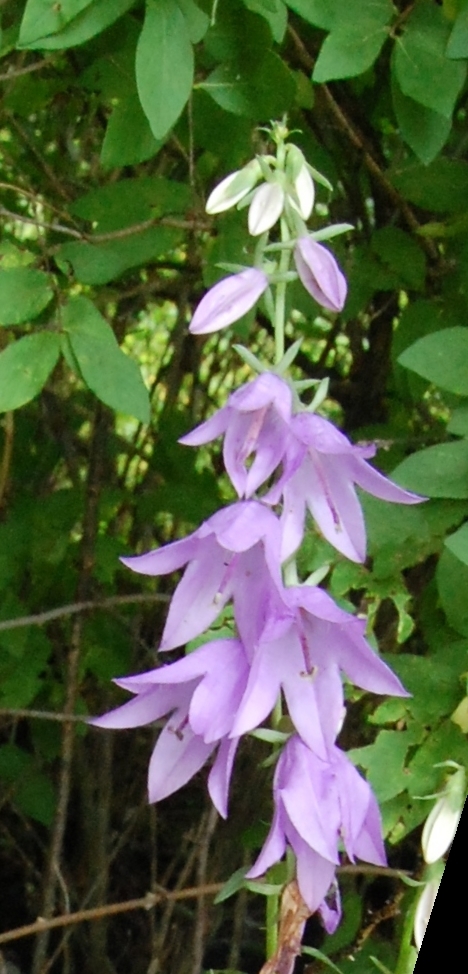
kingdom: Plantae
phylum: Tracheophyta
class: Magnoliopsida
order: Asterales
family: Campanulaceae
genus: Campanula
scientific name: Campanula rapunculoides
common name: Creeping bellflower
